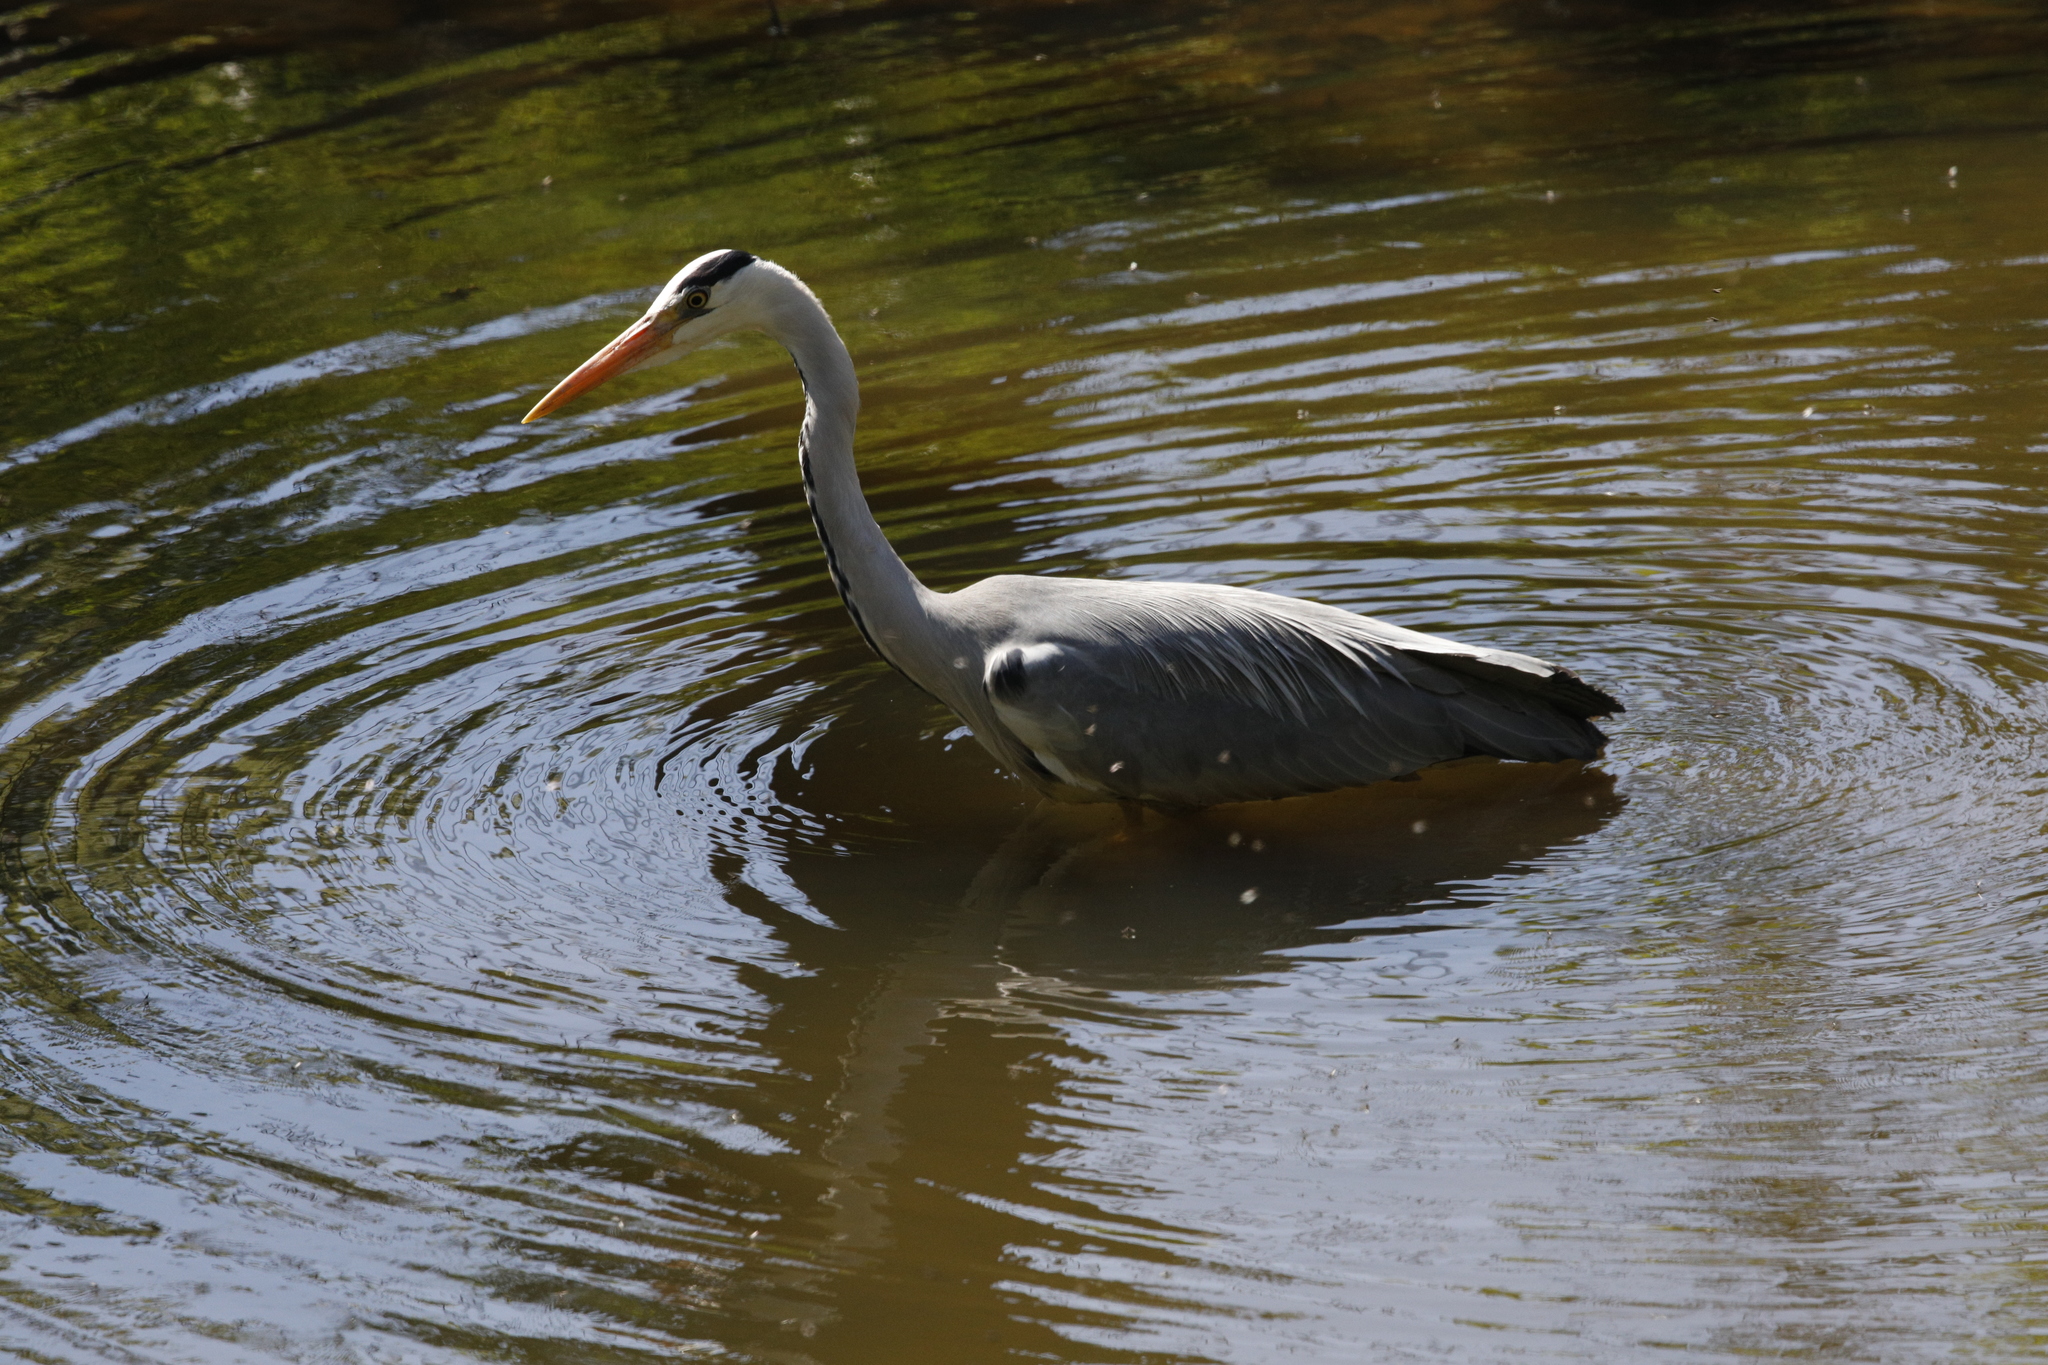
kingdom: Animalia
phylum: Chordata
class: Aves
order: Pelecaniformes
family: Ardeidae
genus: Ardea
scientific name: Ardea cinerea
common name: Grey heron
